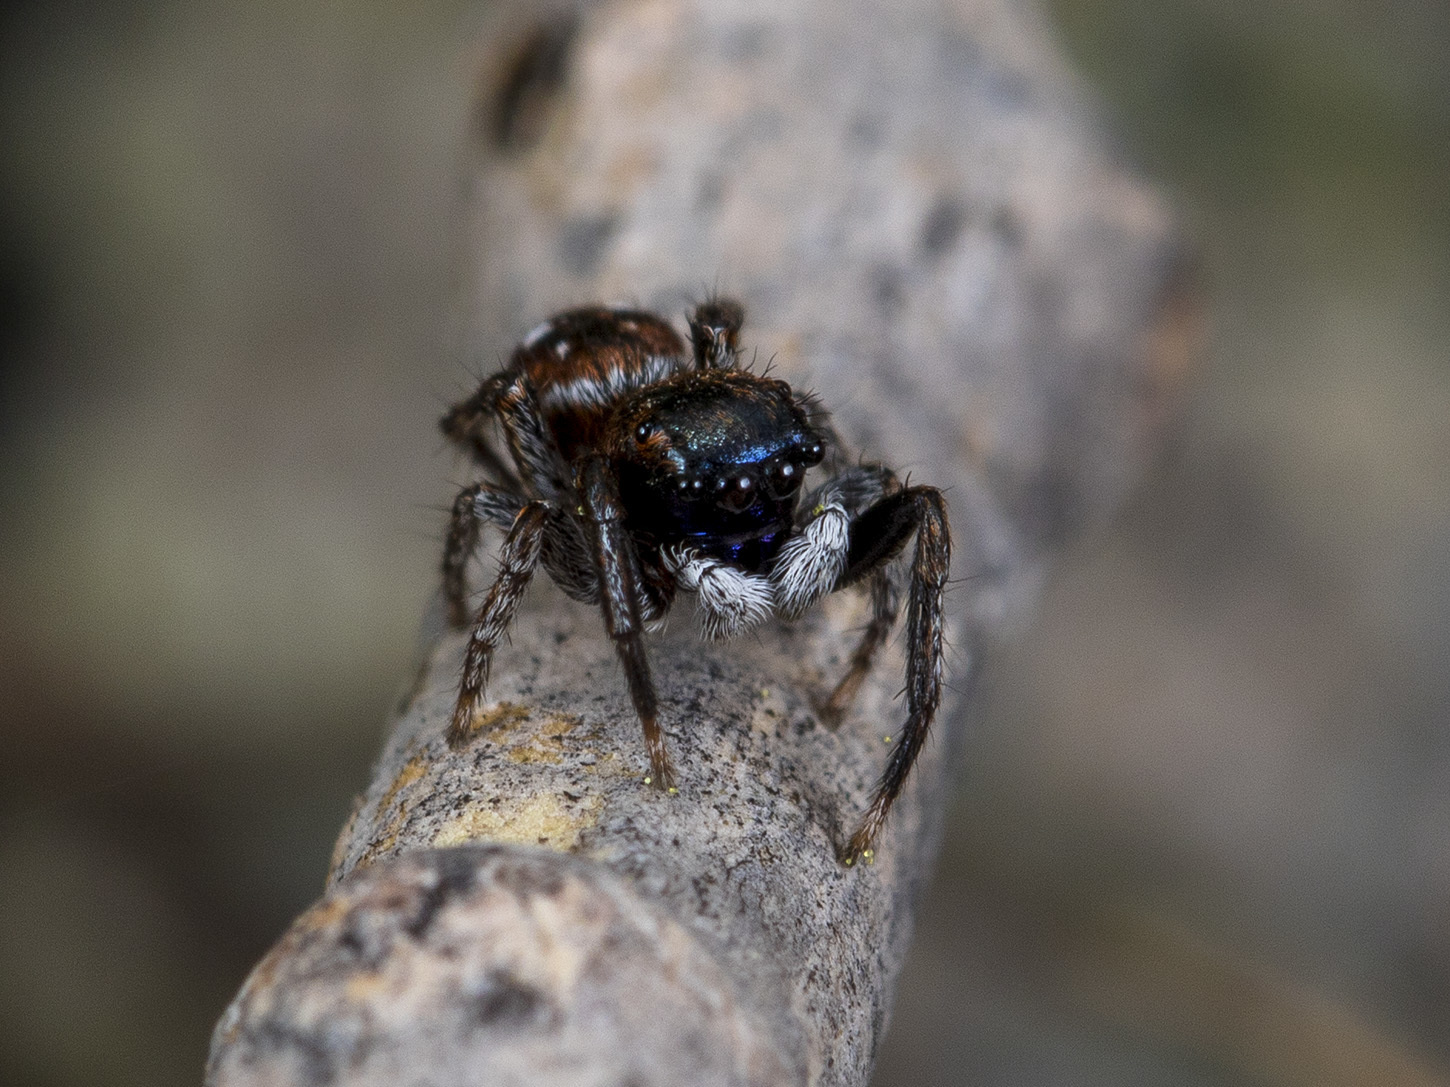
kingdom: Animalia
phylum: Arthropoda
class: Arachnida
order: Araneae
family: Salticidae
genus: Attulus
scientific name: Attulus mirandus
